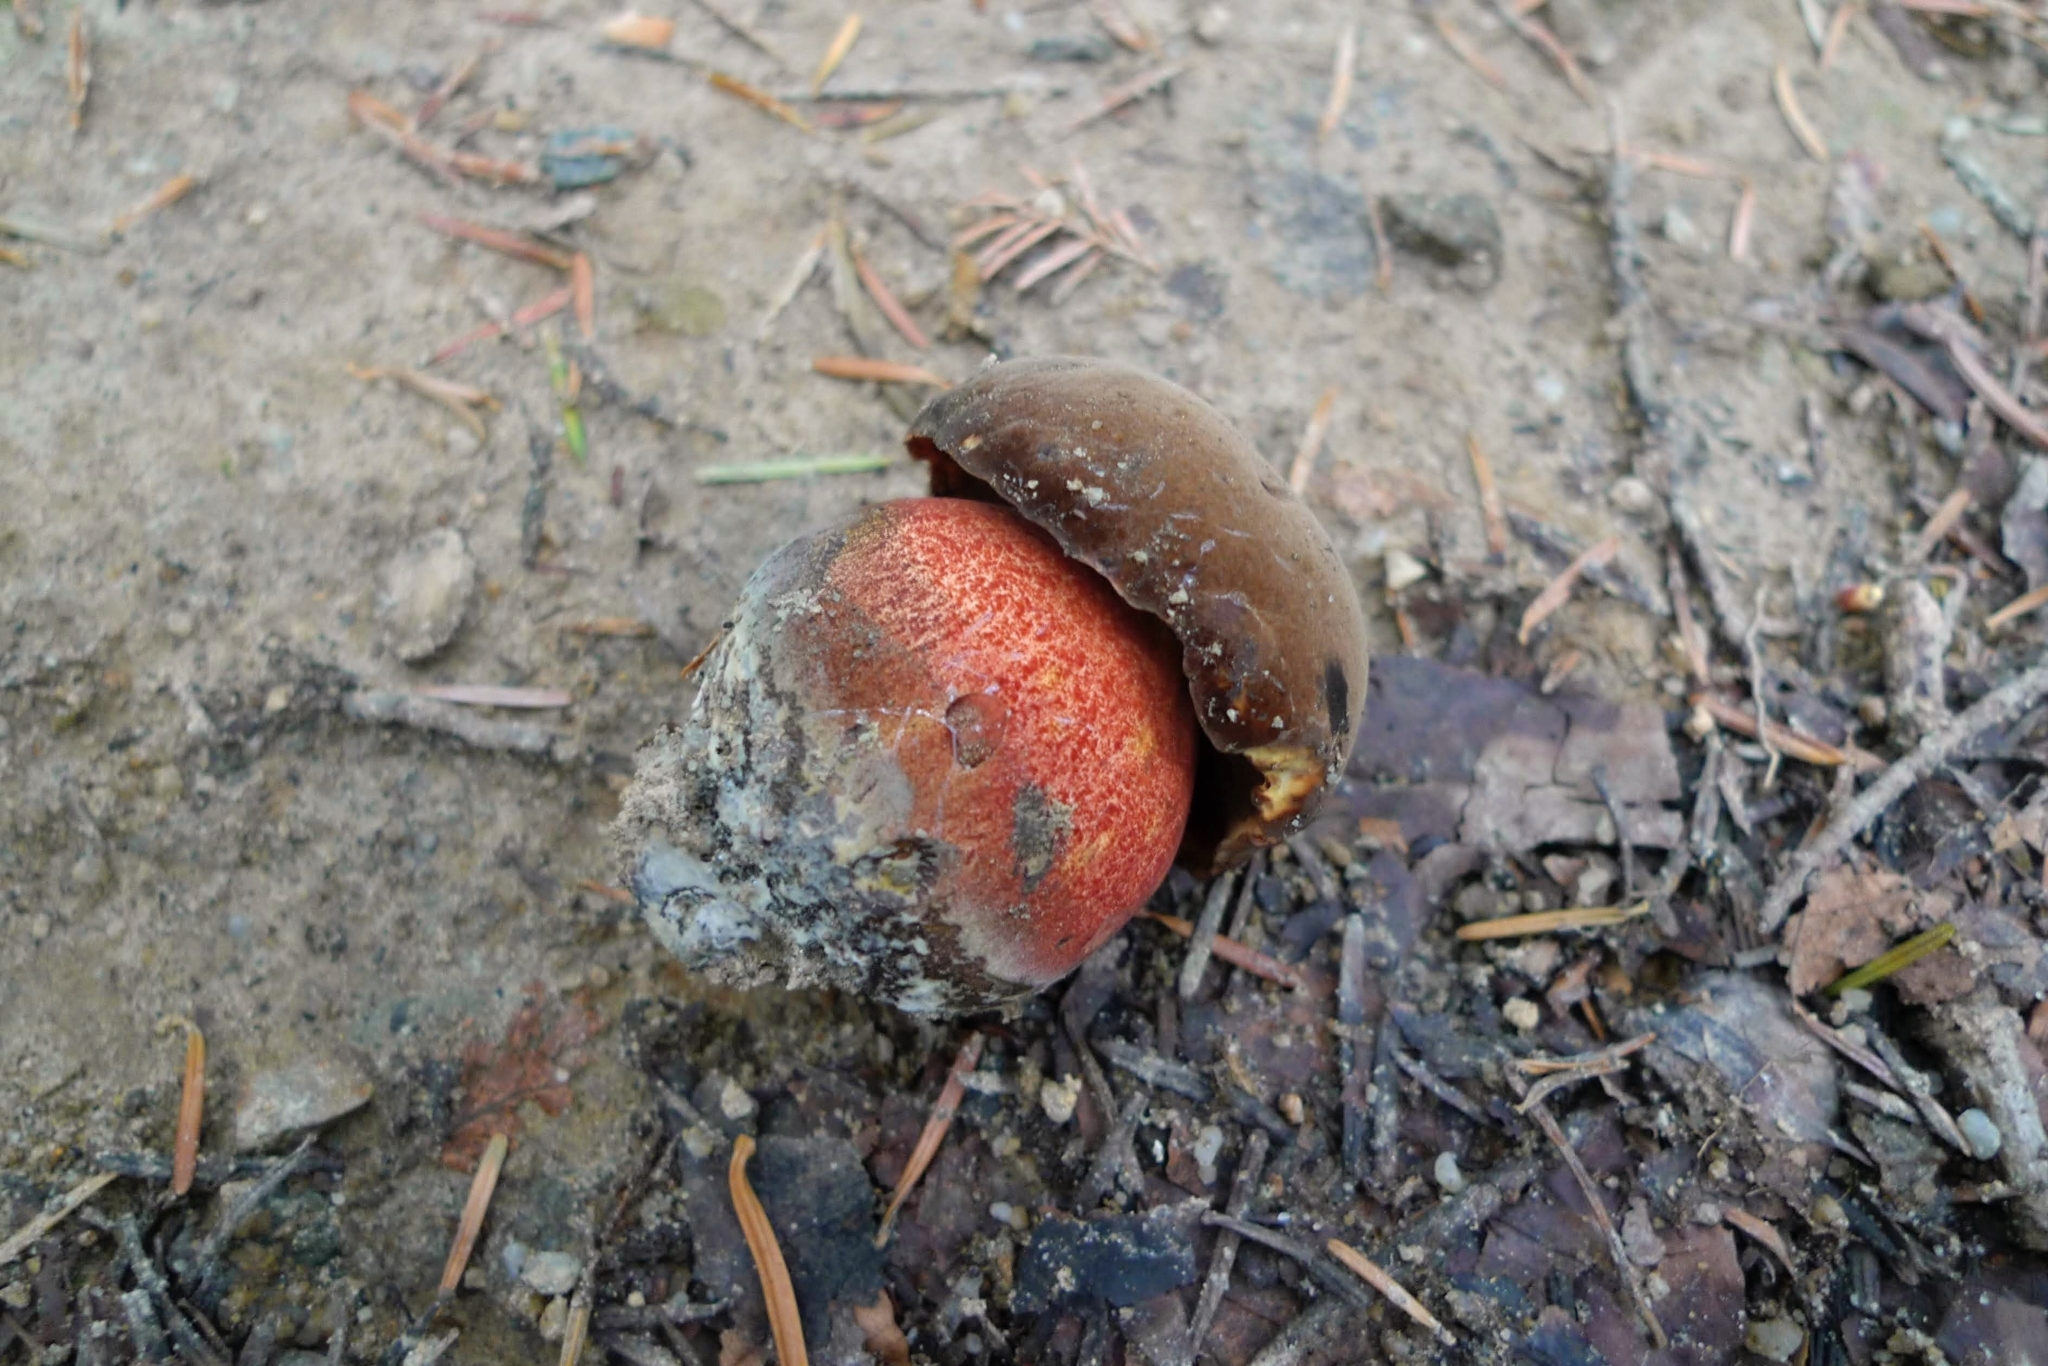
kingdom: Fungi
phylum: Basidiomycota
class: Agaricomycetes
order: Boletales
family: Boletaceae
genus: Neoboletus
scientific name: Neoboletus luridiformis
